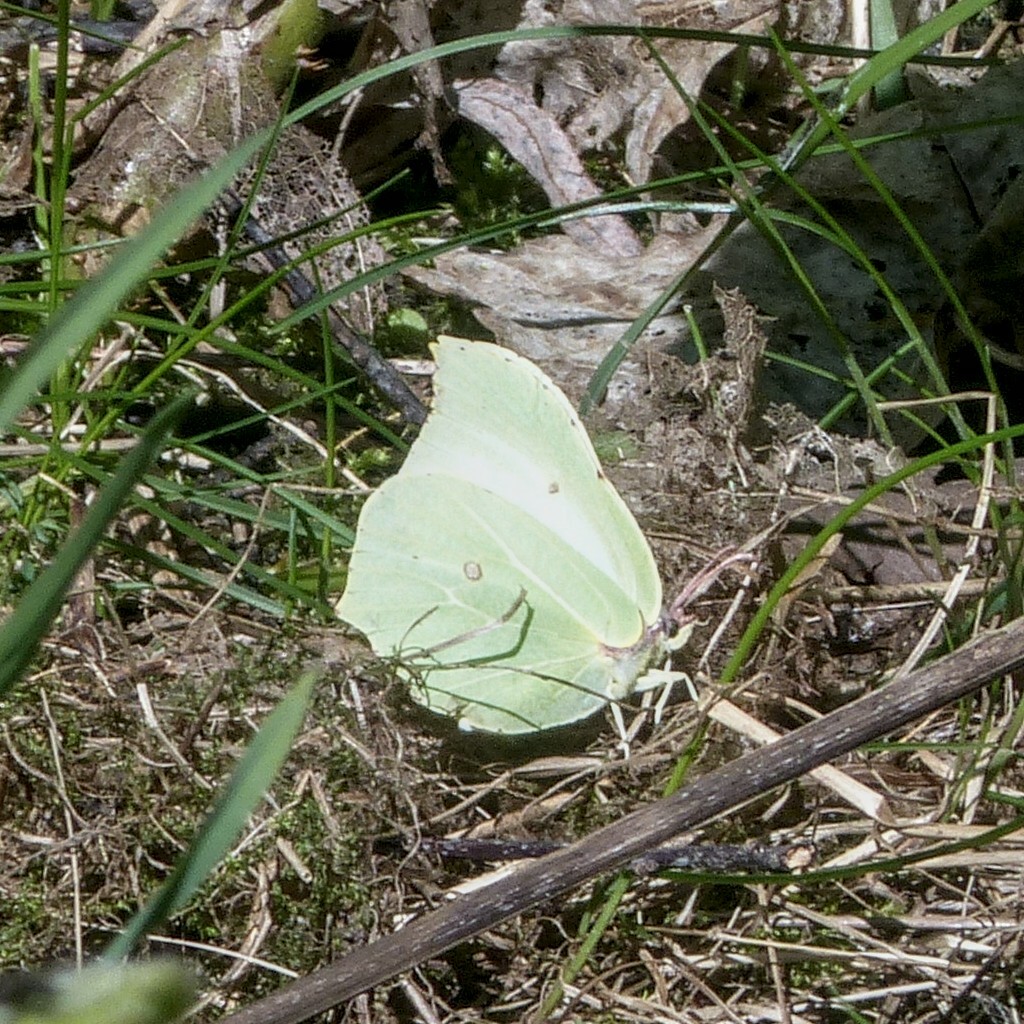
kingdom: Animalia
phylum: Arthropoda
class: Insecta
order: Lepidoptera
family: Pieridae
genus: Gonepteryx
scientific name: Gonepteryx rhamni
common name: Brimstone
